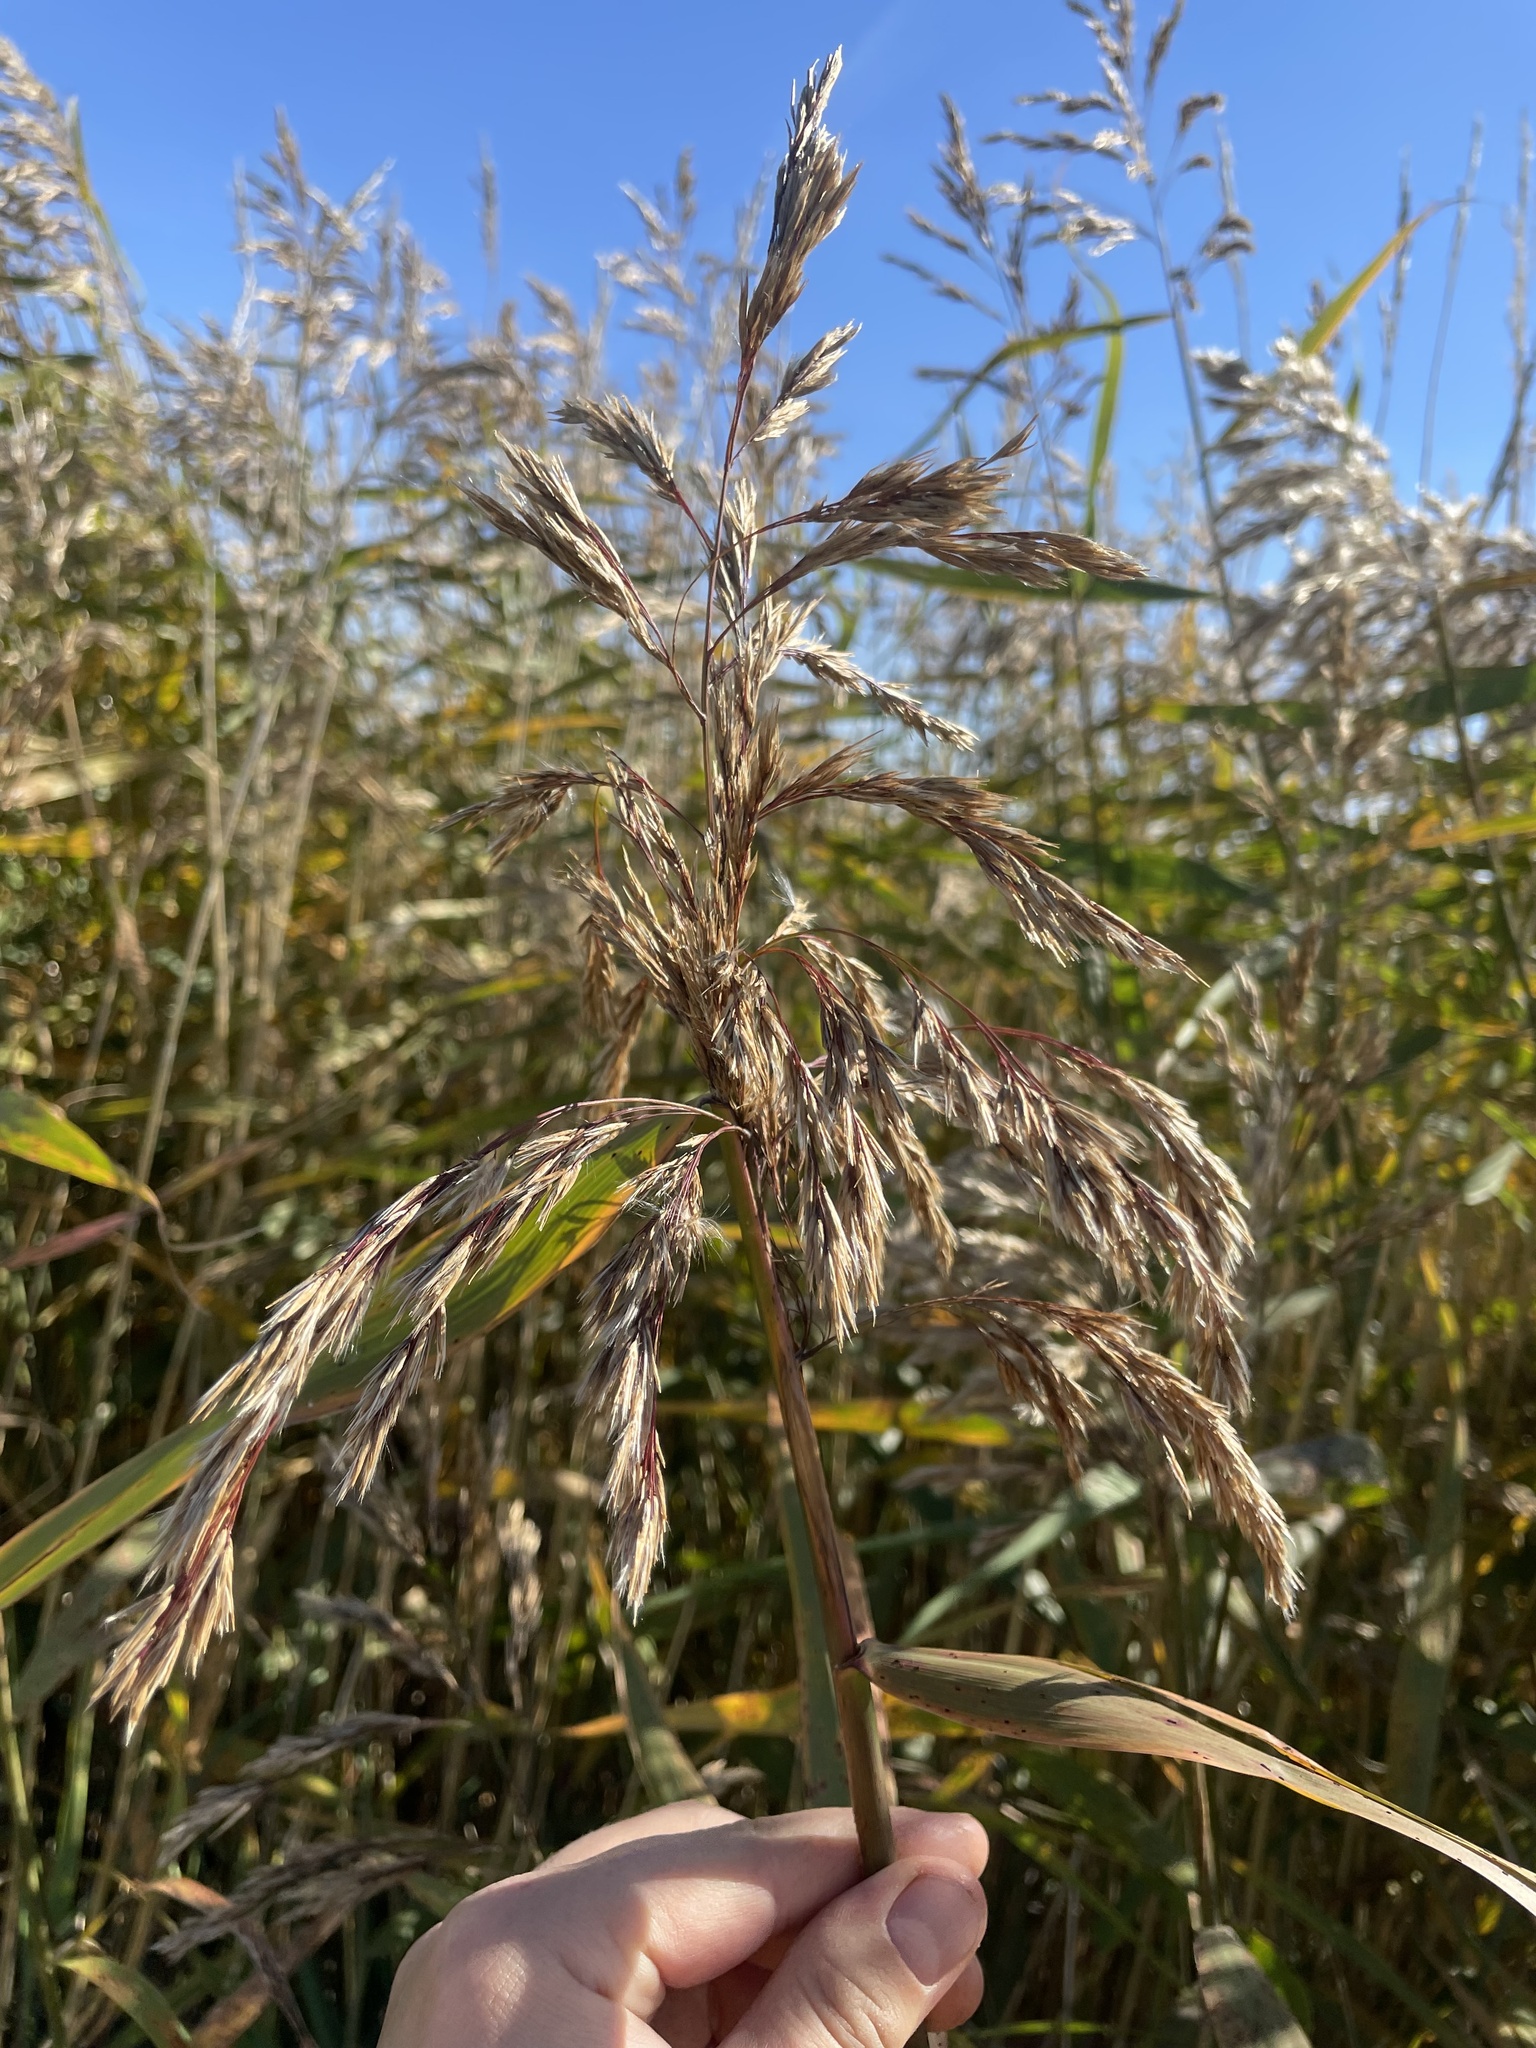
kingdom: Plantae
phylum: Tracheophyta
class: Liliopsida
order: Poales
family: Poaceae
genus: Phragmites
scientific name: Phragmites australis
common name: Common reed
